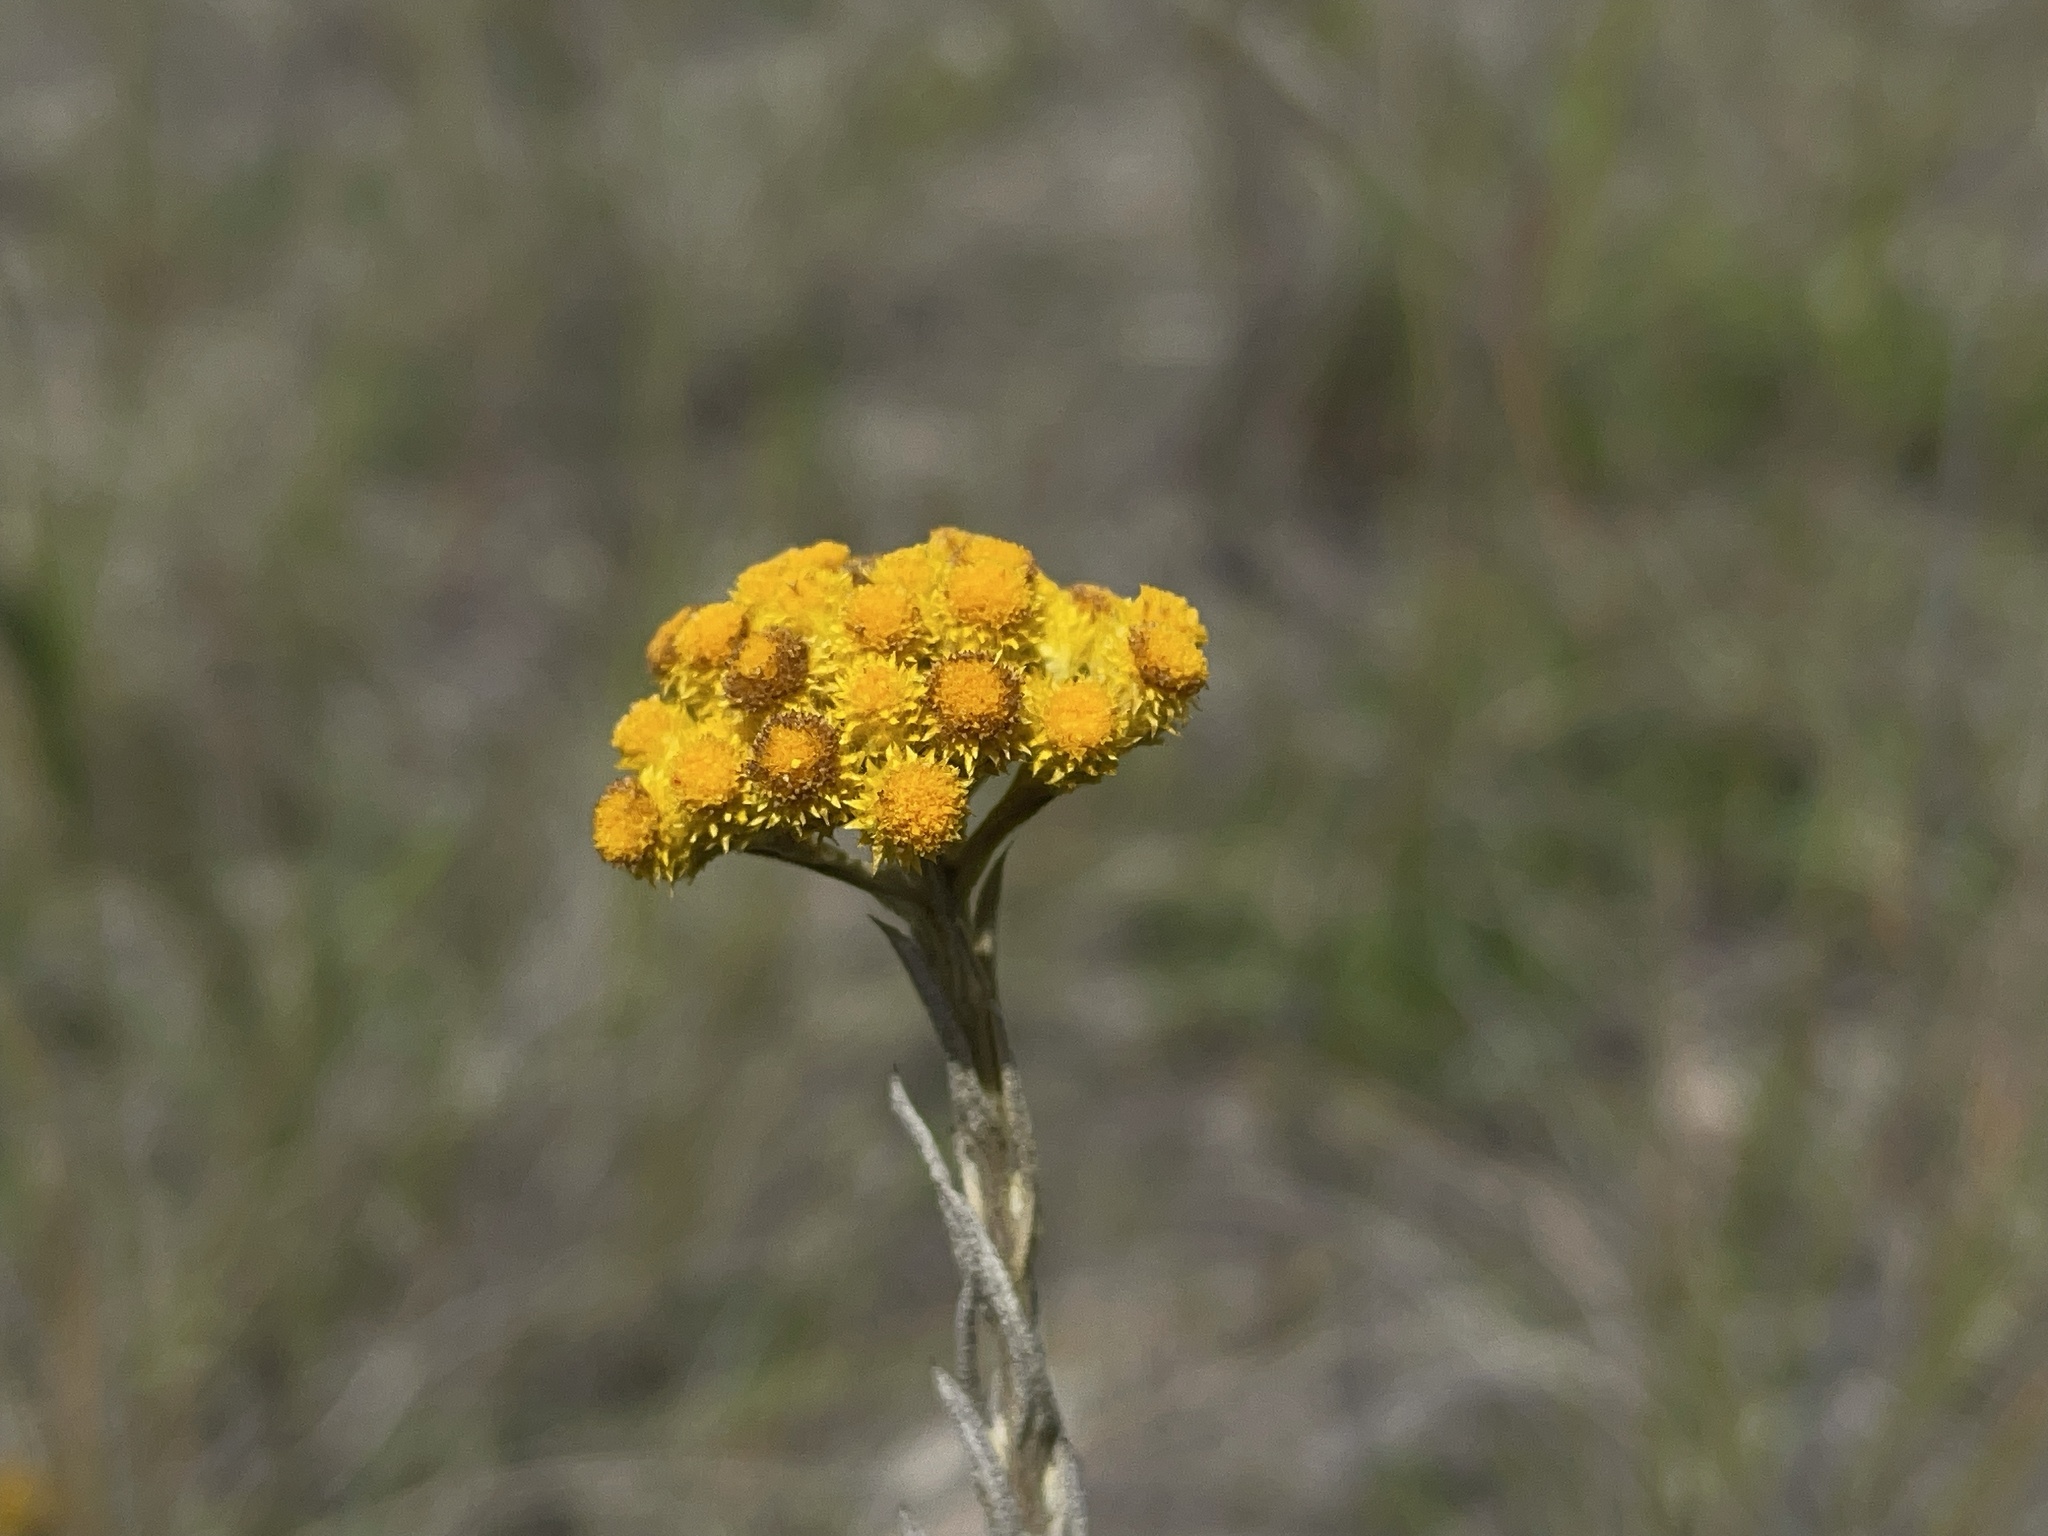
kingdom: Plantae
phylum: Tracheophyta
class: Magnoliopsida
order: Asterales
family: Asteraceae
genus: Chrysocephalum
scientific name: Chrysocephalum semipapposum
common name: Clustered everlasting
